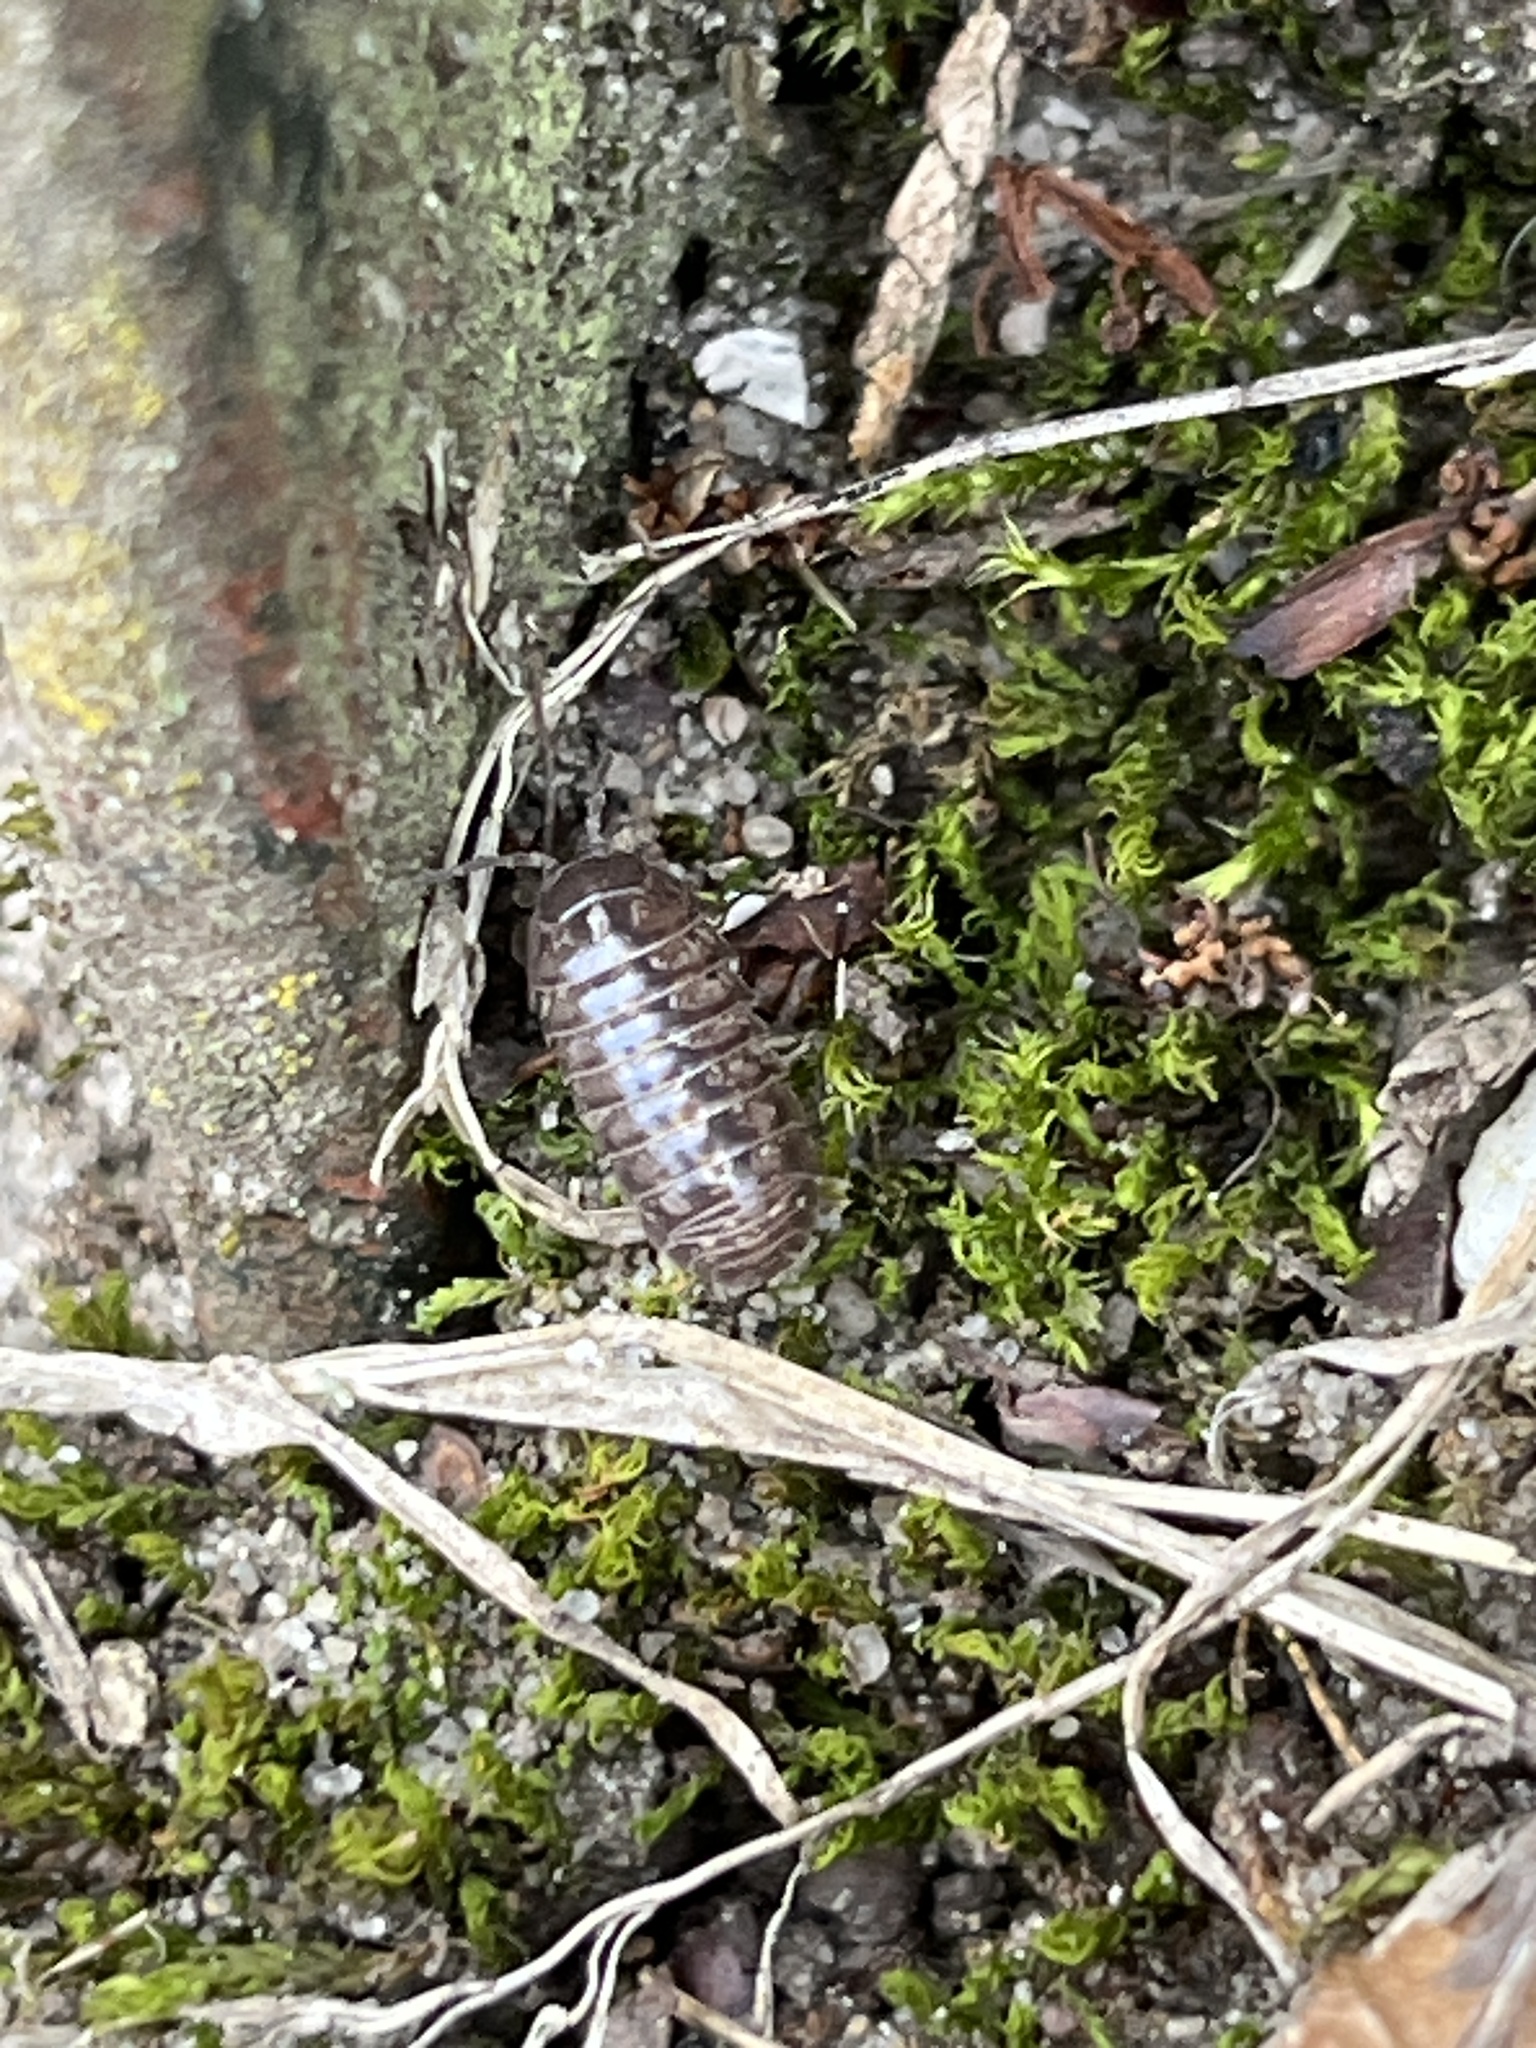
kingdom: Animalia
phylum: Arthropoda
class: Malacostraca
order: Isopoda
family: Armadillidiidae
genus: Armadillidium
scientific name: Armadillidium vulgare
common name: Common pill woodlouse
